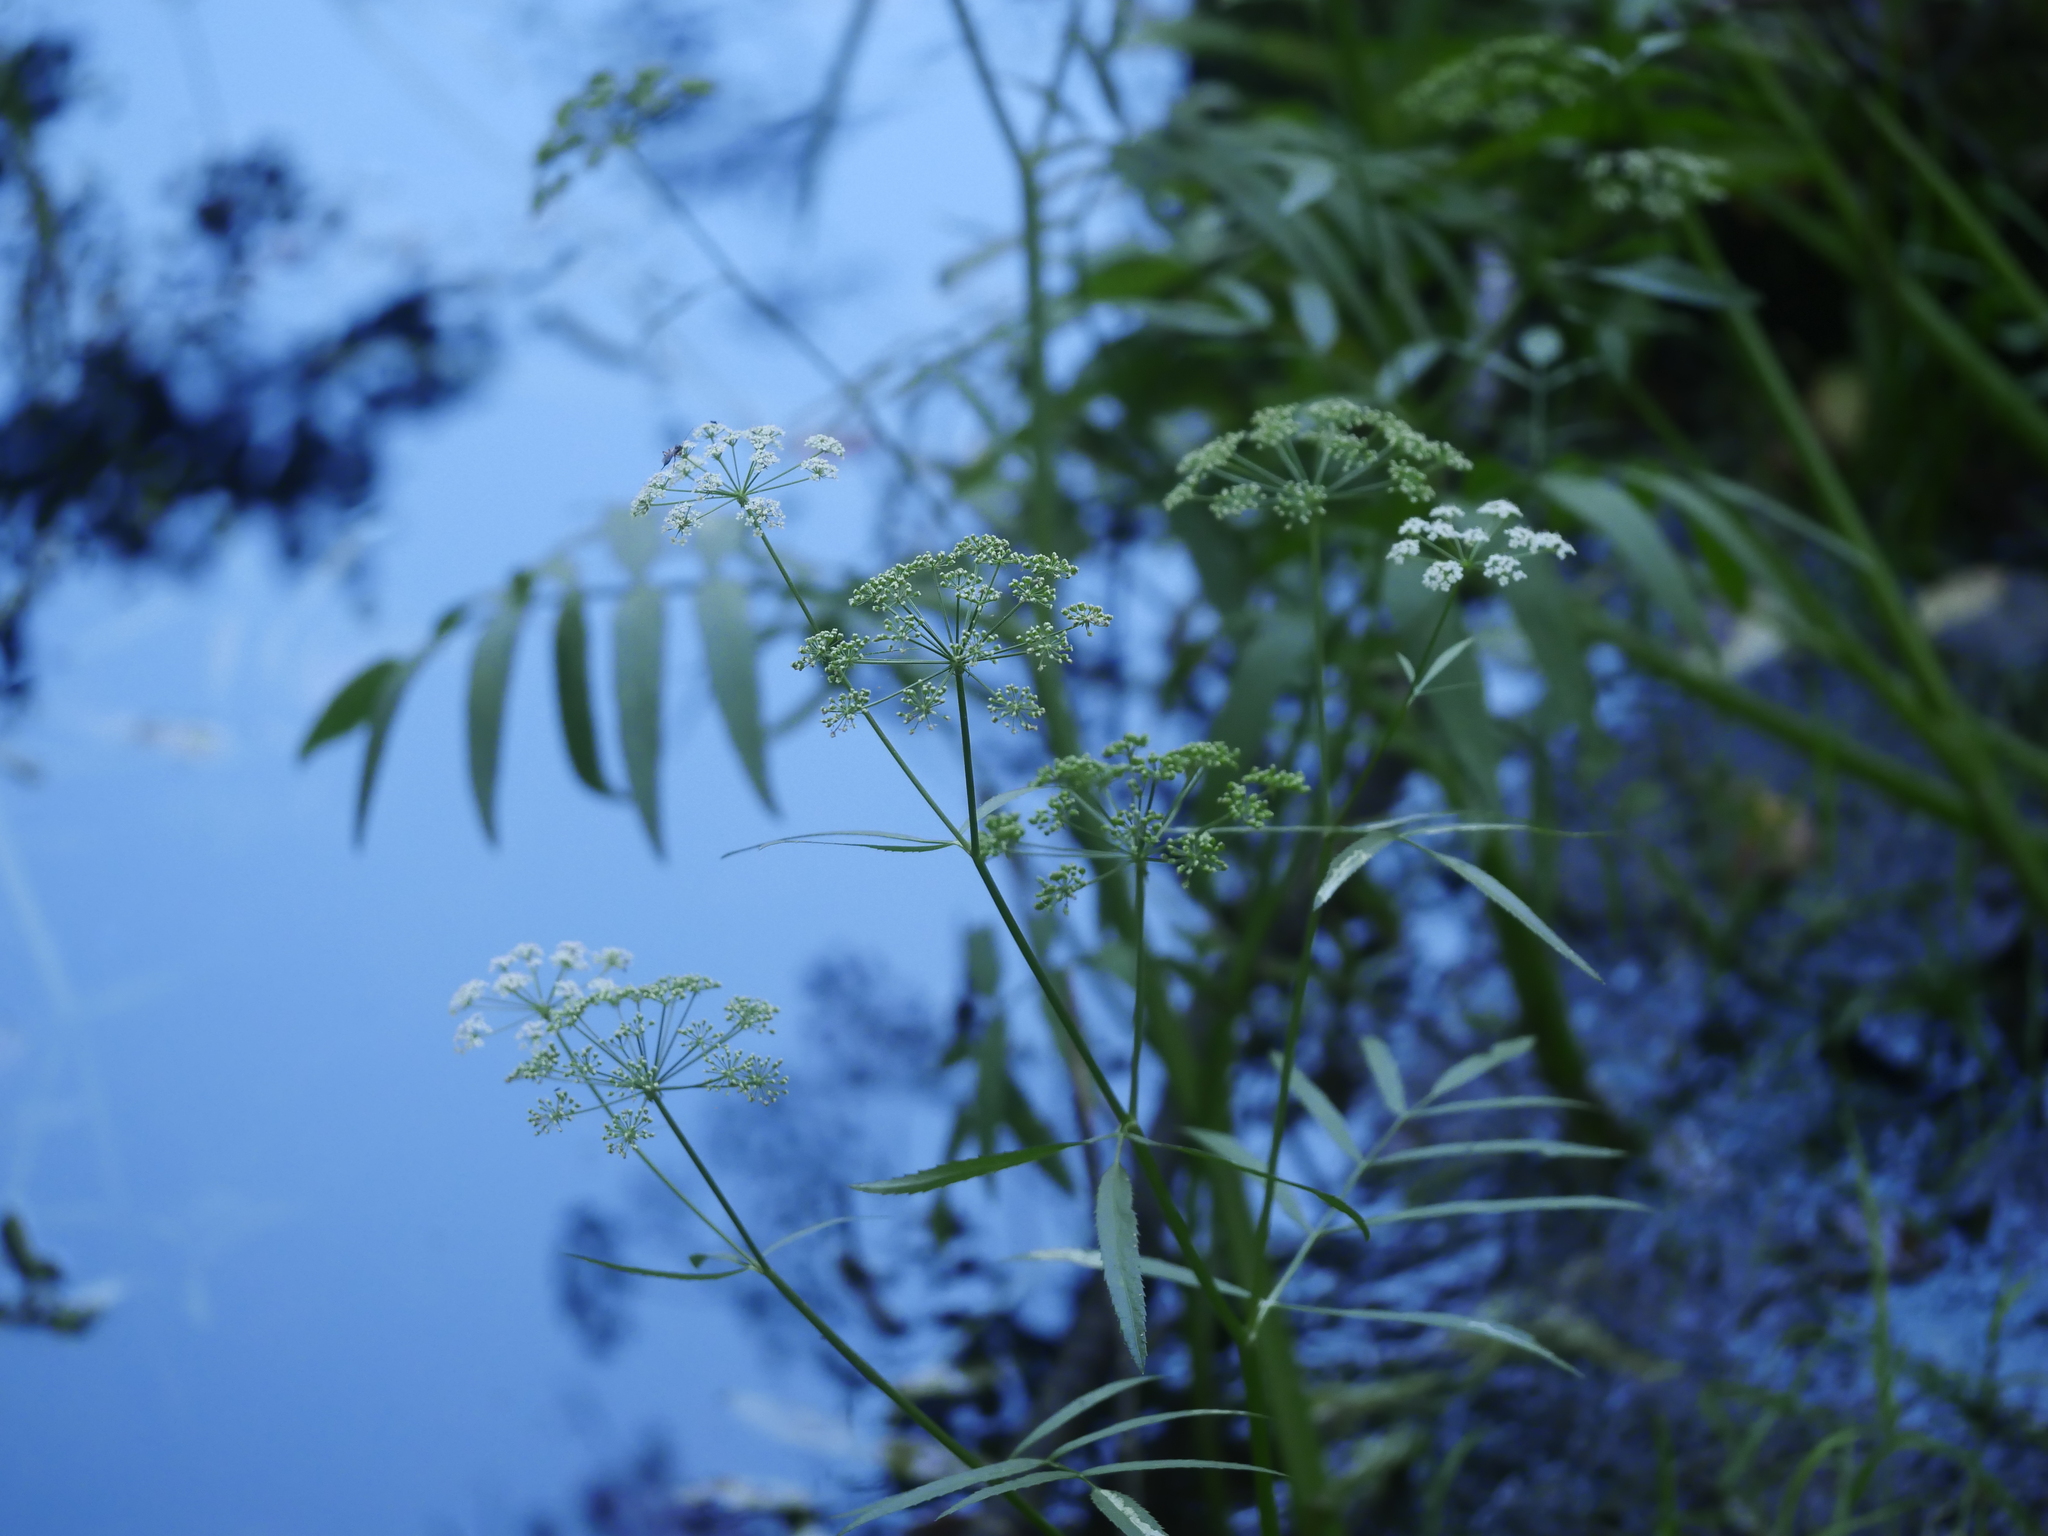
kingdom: Plantae
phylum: Tracheophyta
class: Magnoliopsida
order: Apiales
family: Apiaceae
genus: Sium
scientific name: Sium suave
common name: Hemlock water-parsnip
